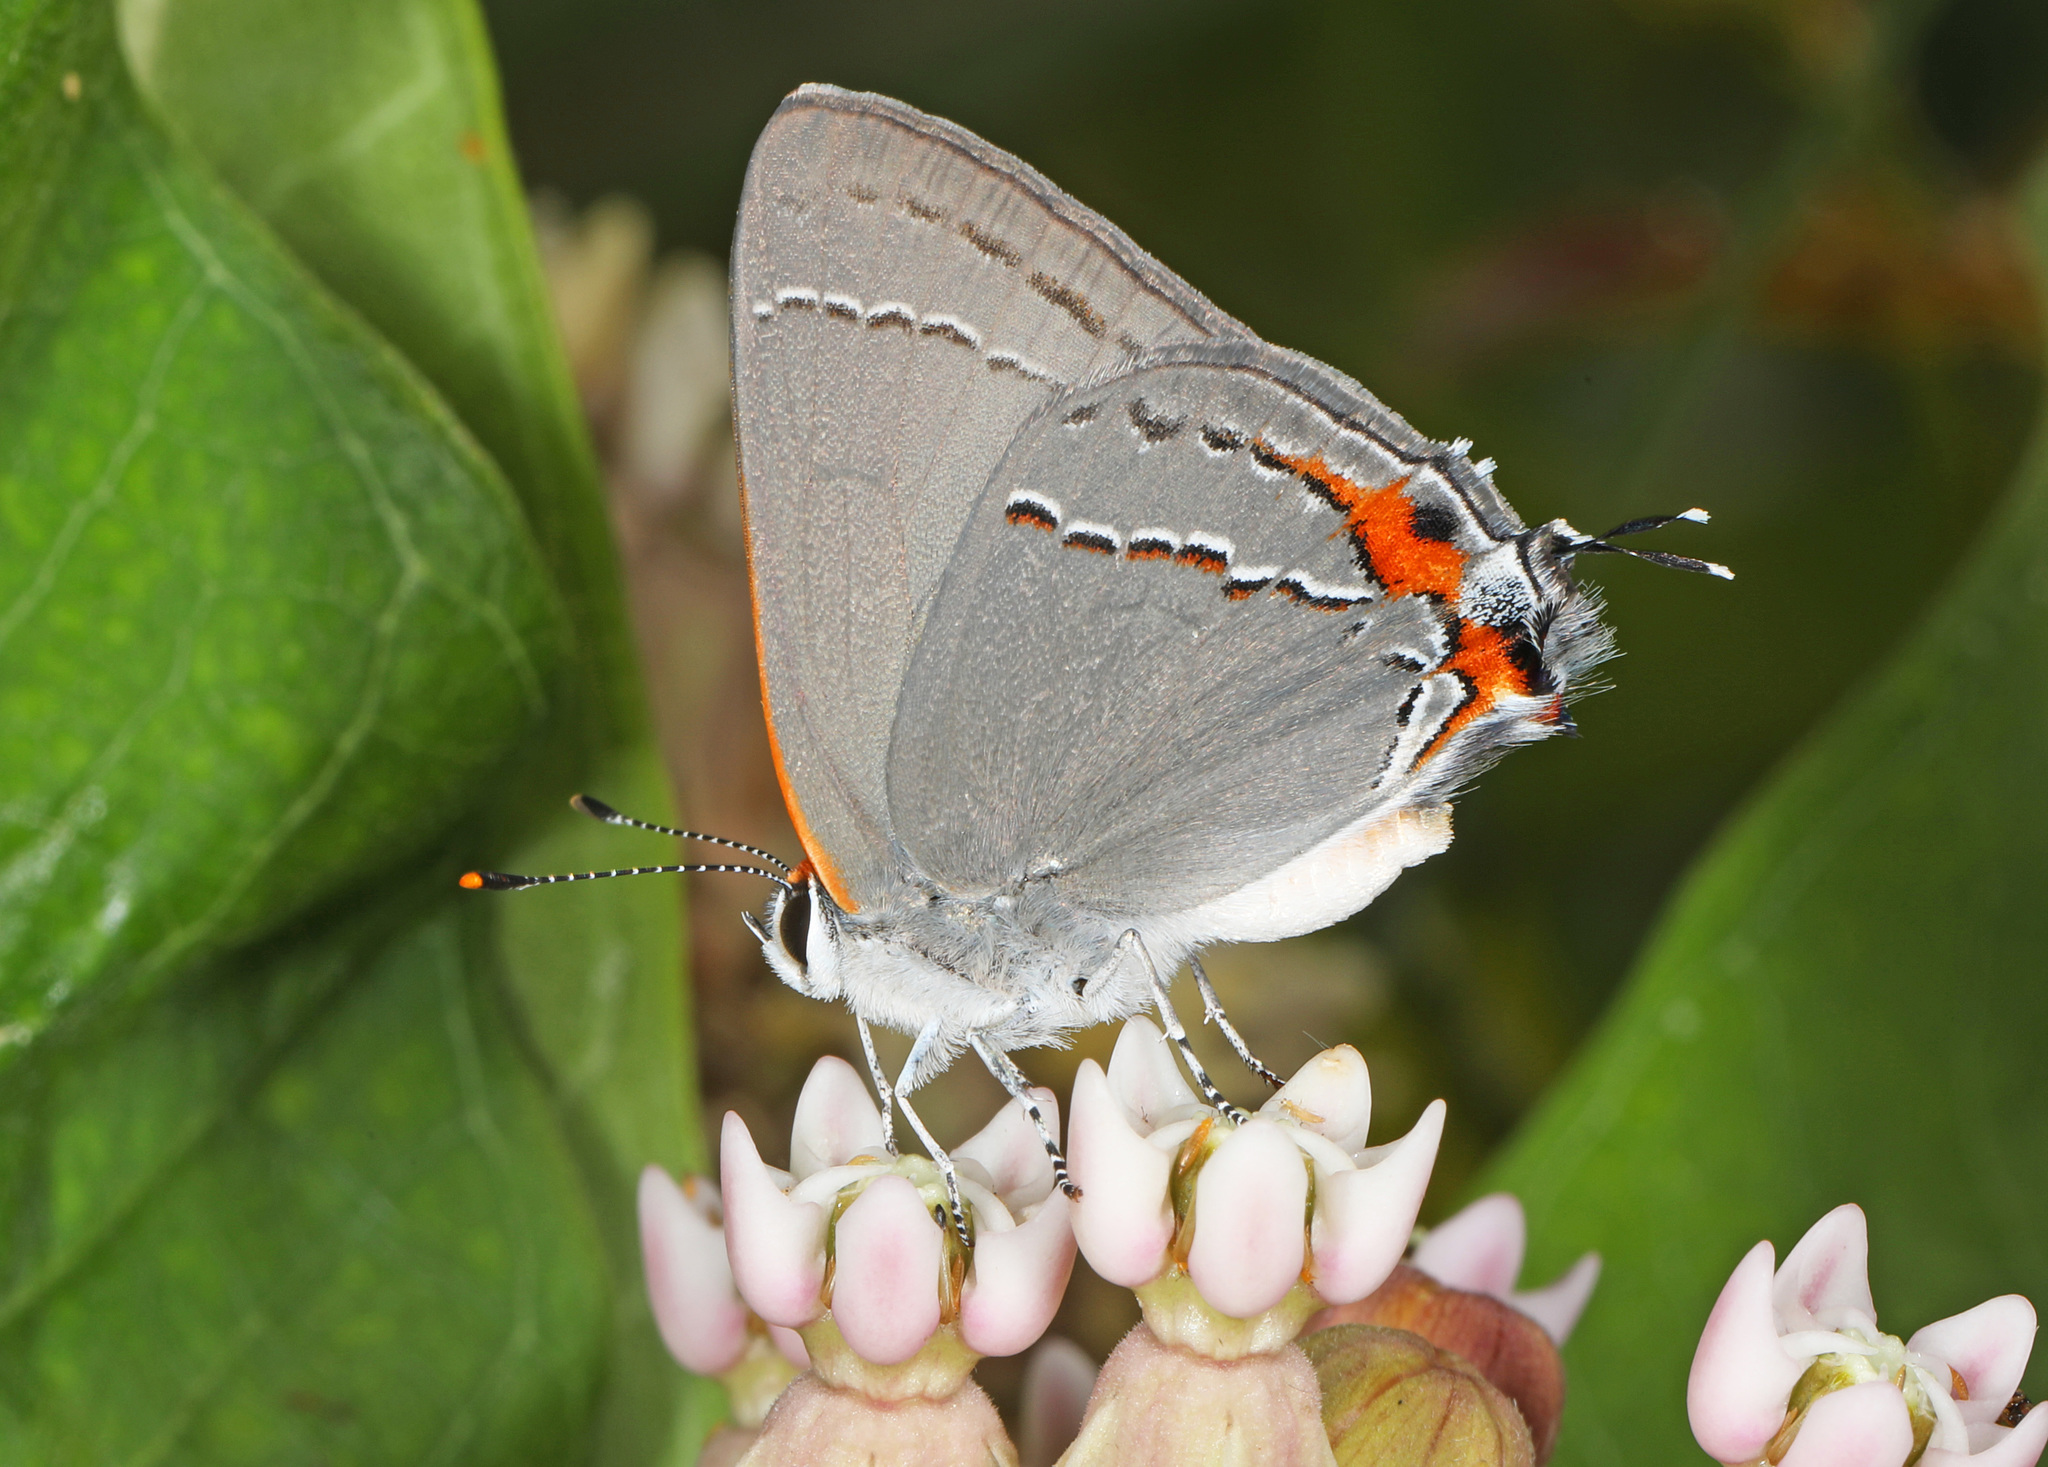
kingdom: Animalia
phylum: Arthropoda
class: Insecta
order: Lepidoptera
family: Lycaenidae
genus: Strymon
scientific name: Strymon melinus
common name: Gray hairstreak
